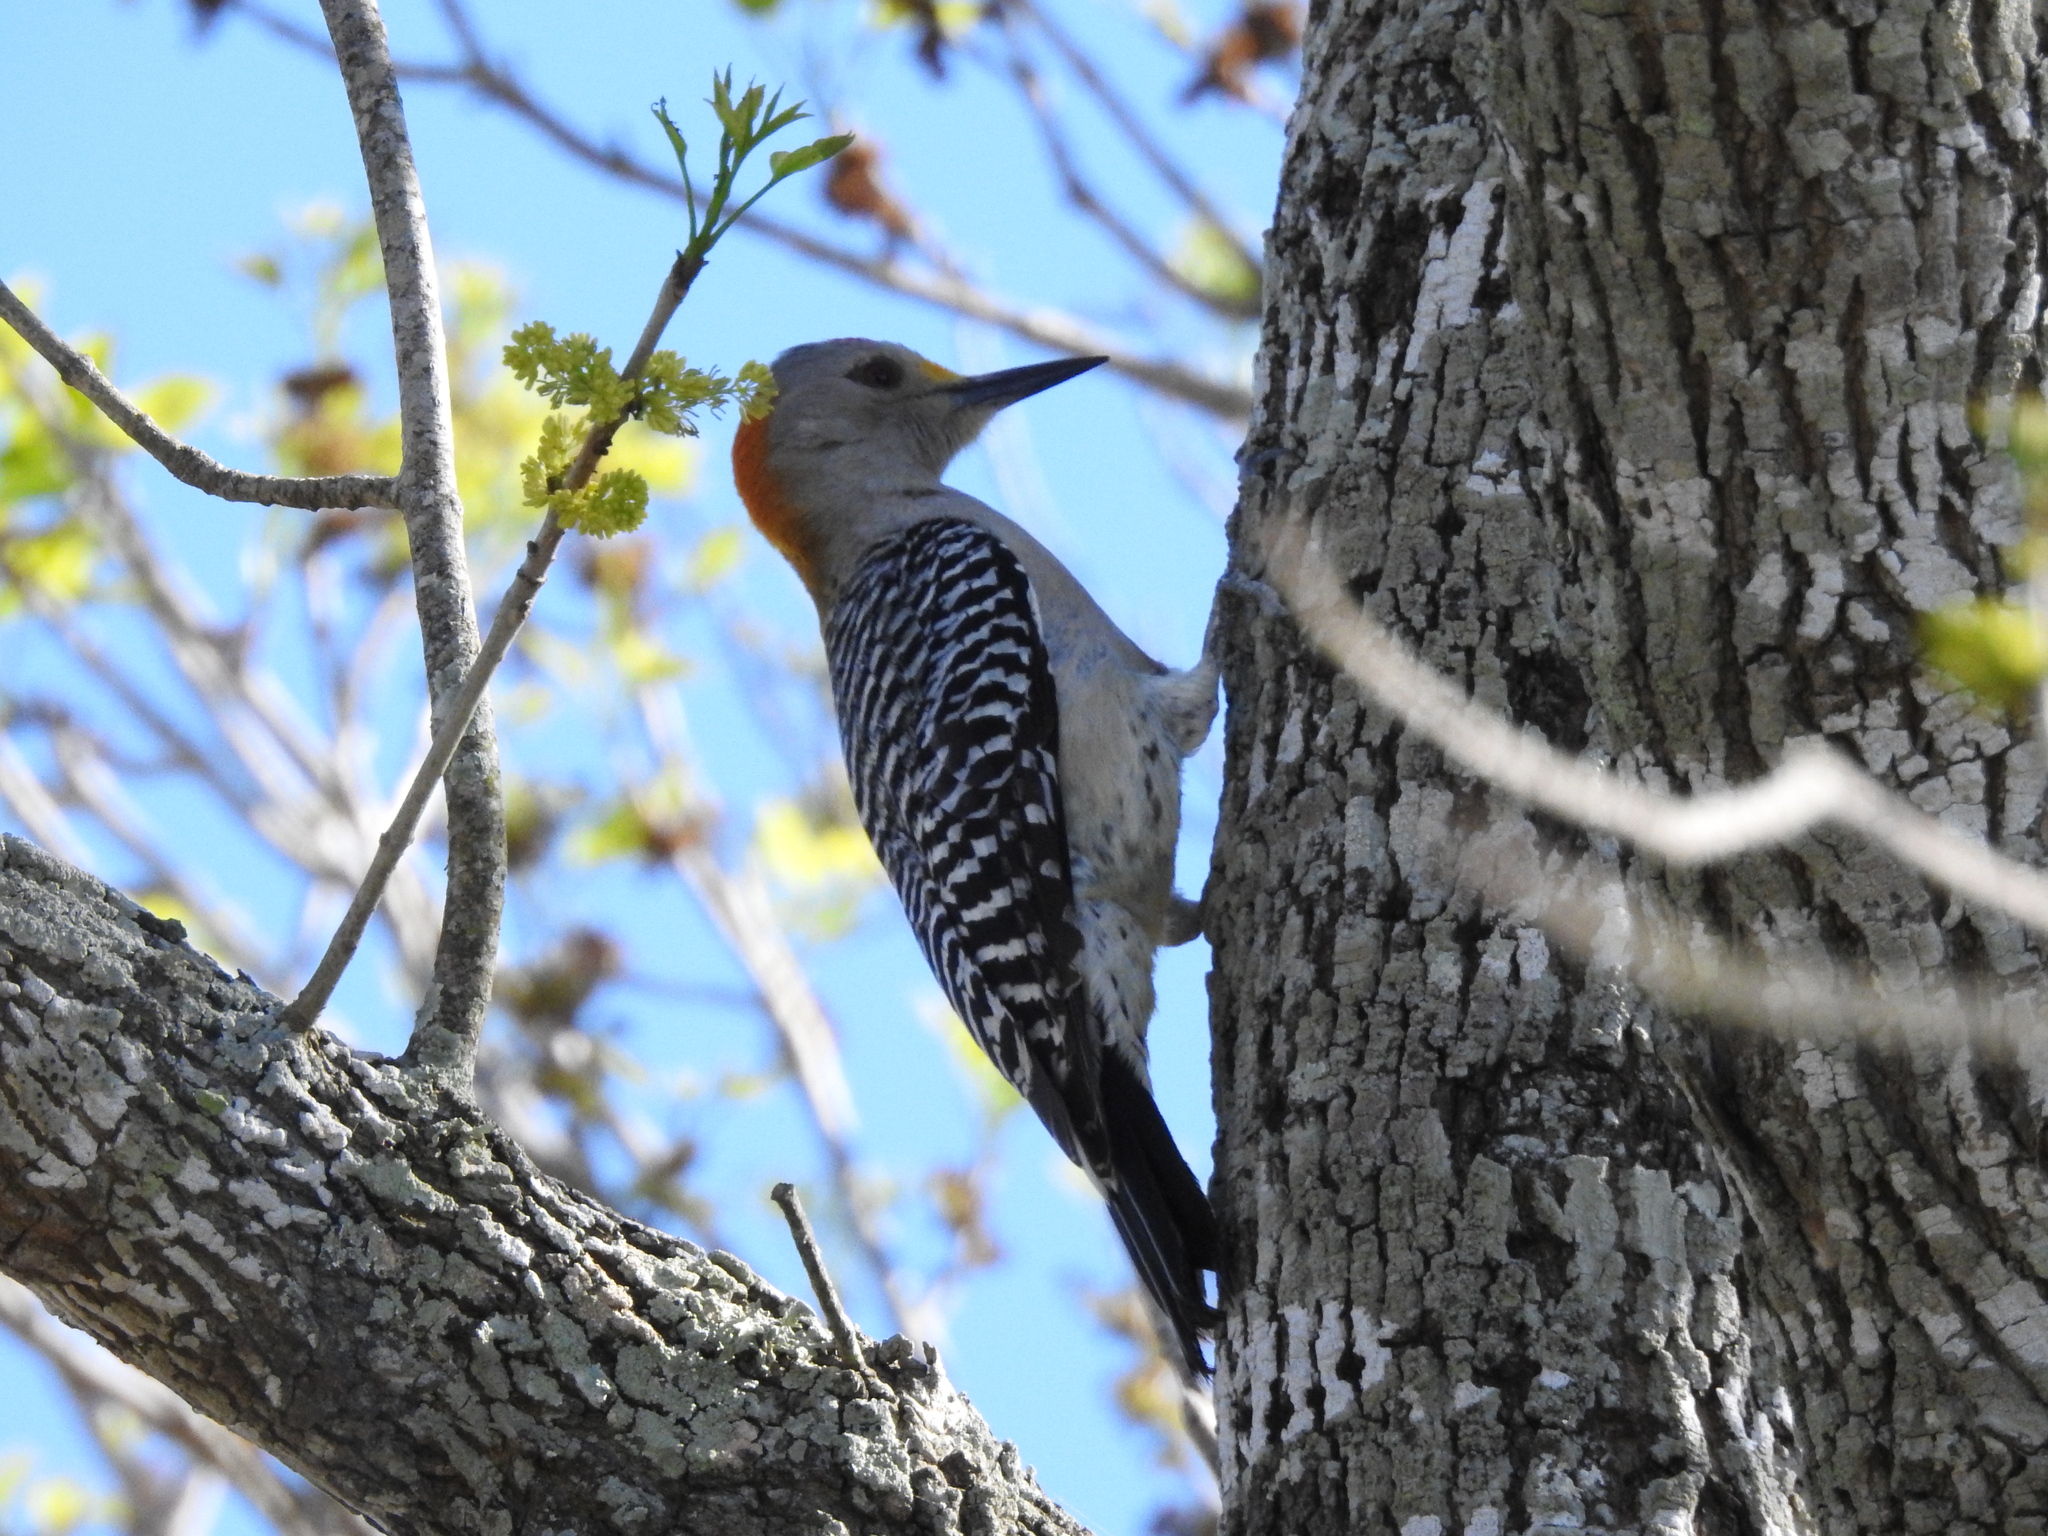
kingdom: Animalia
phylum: Chordata
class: Aves
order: Piciformes
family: Picidae
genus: Melanerpes
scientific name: Melanerpes aurifrons
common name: Golden-fronted woodpecker
